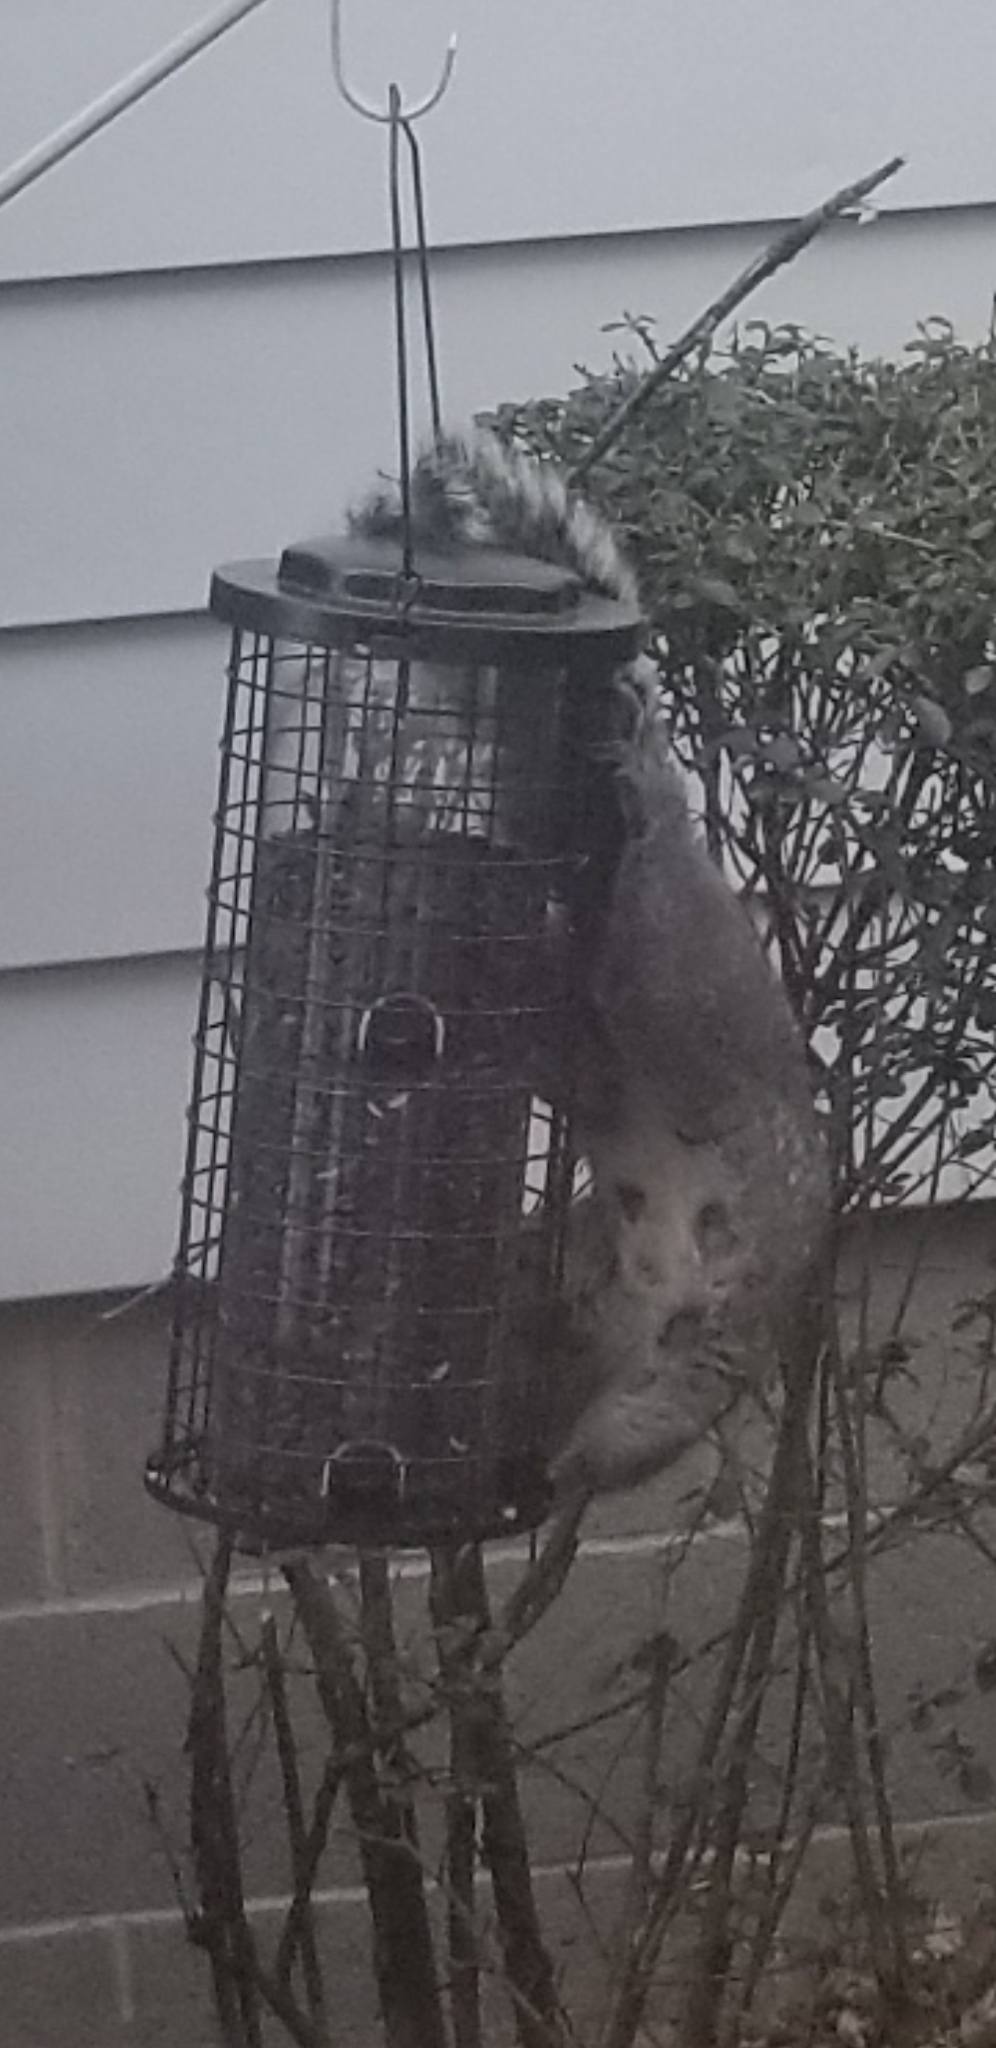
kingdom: Animalia
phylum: Chordata
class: Mammalia
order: Rodentia
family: Sciuridae
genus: Sciurus
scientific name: Sciurus carolinensis
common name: Eastern gray squirrel
